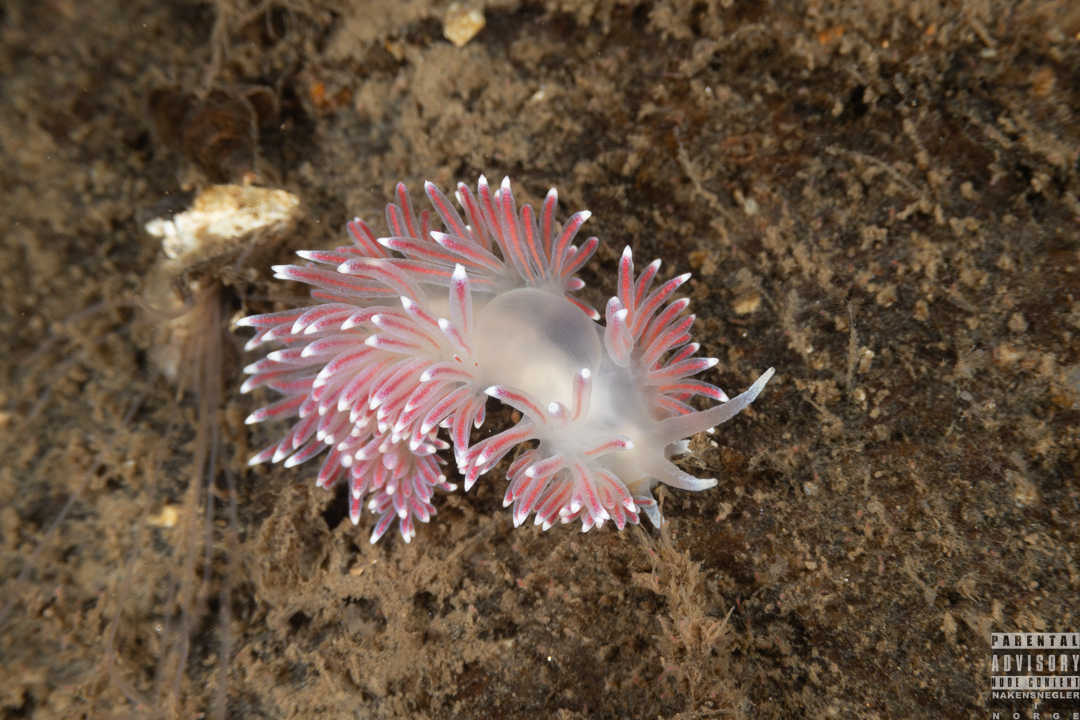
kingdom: Animalia
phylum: Mollusca
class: Gastropoda
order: Nudibranchia
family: Flabellinidae
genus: Carronella
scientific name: Carronella pellucida
